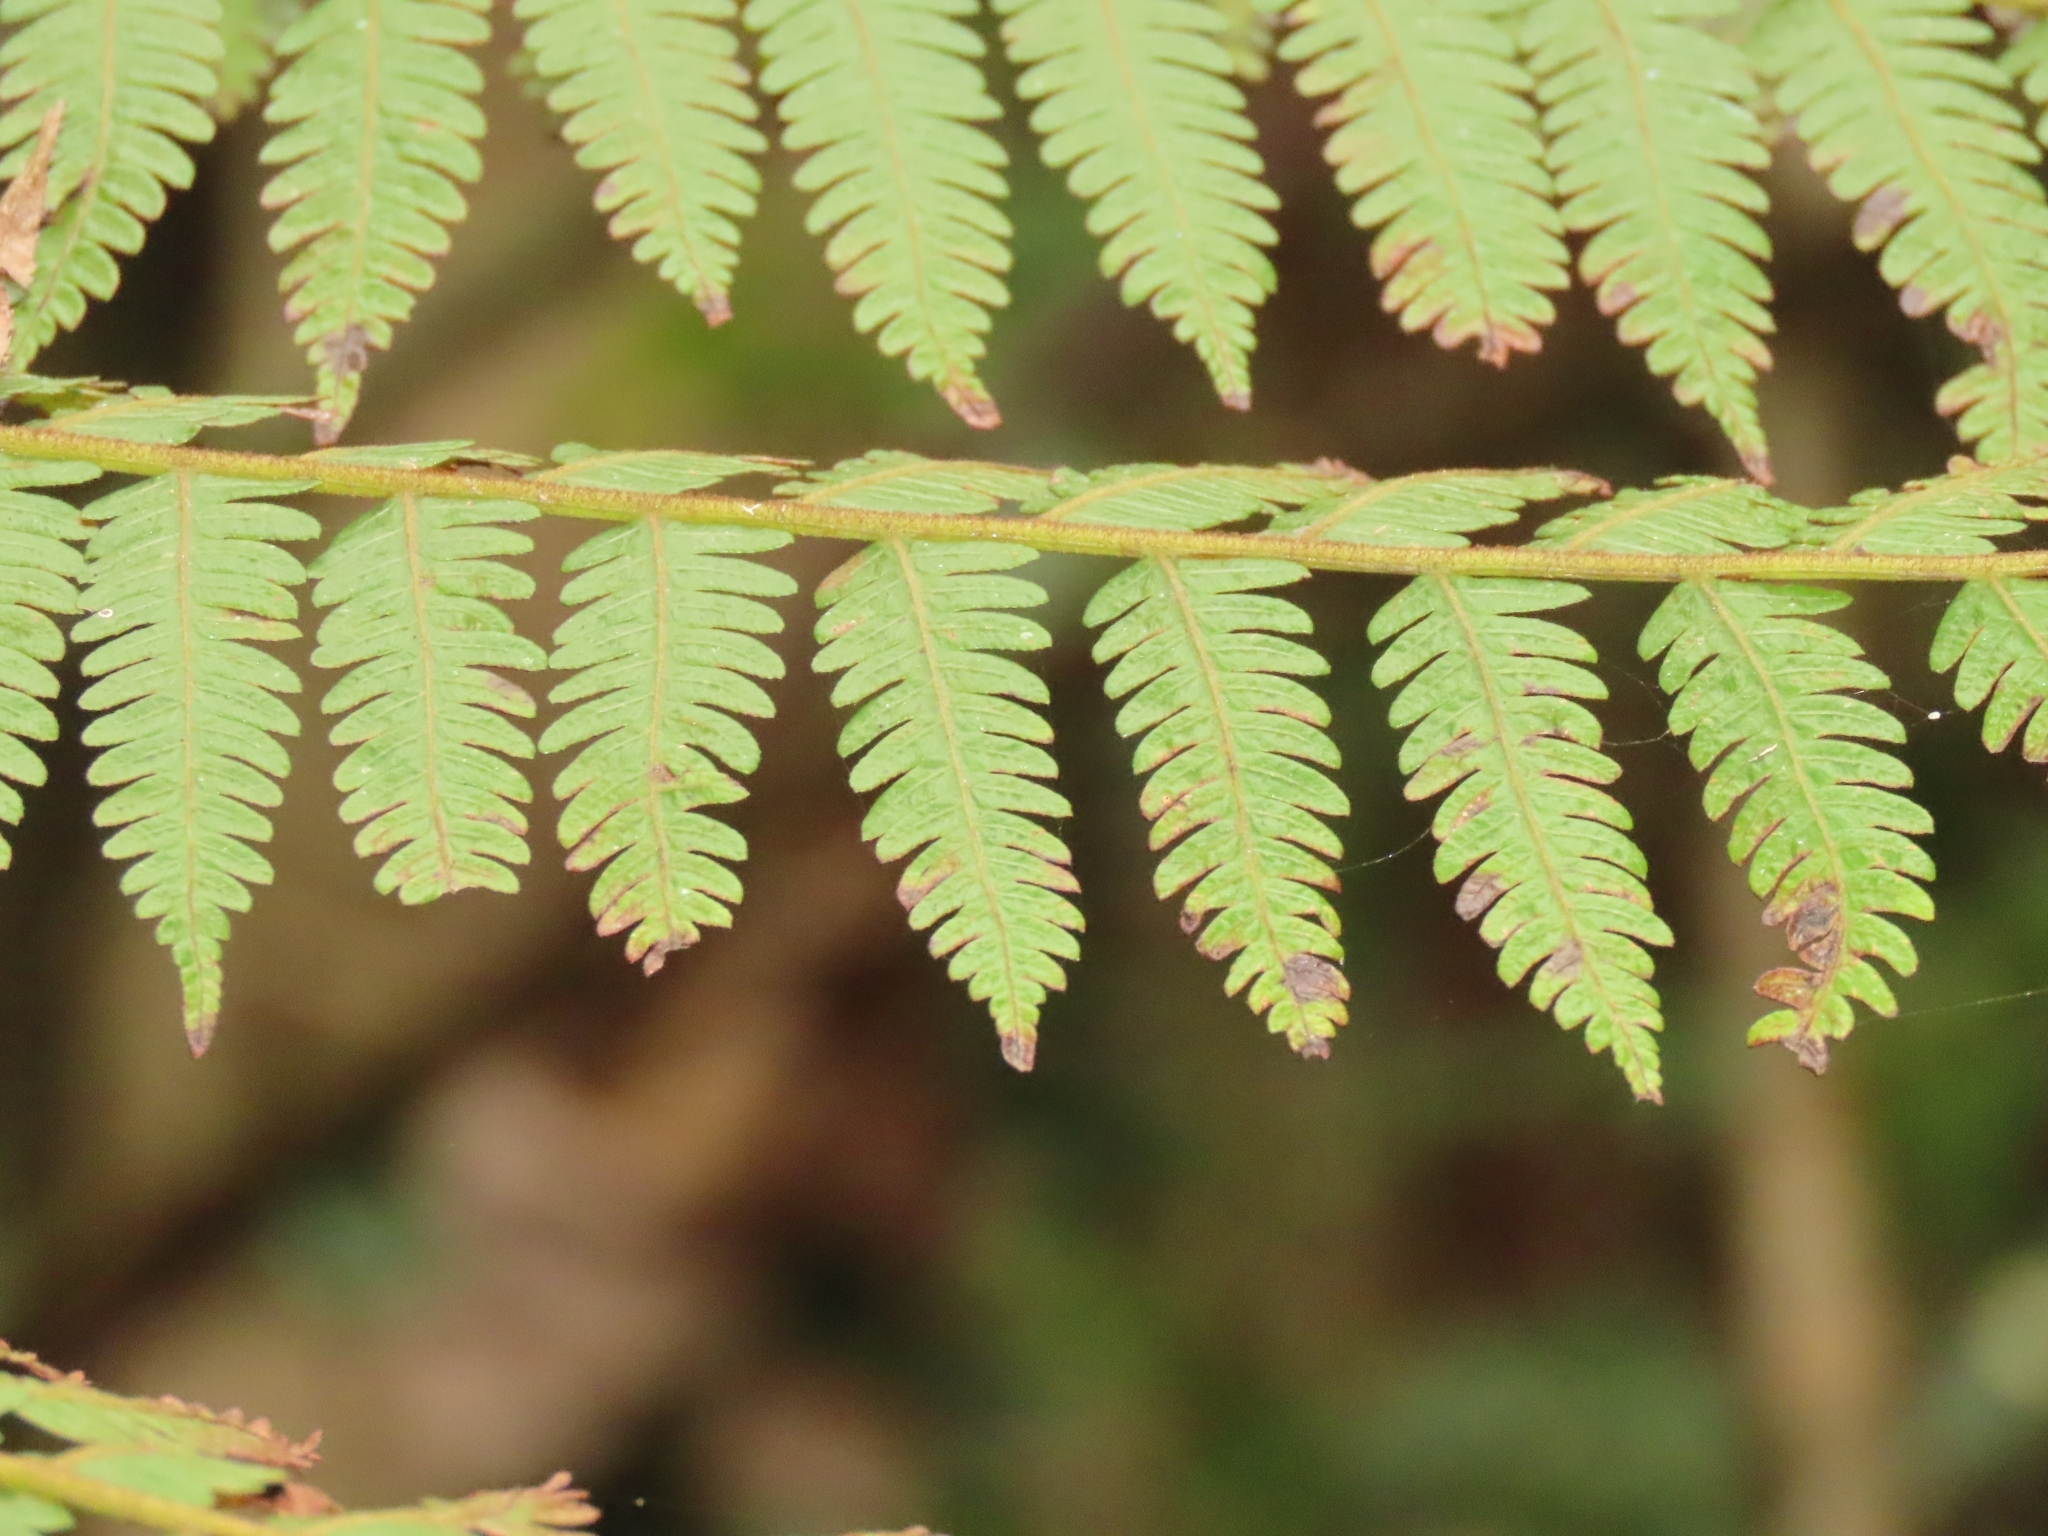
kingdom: Plantae
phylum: Tracheophyta
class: Polypodiopsida
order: Cyatheales
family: Cyatheaceae
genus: Alsophila
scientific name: Alsophila spinulosa
